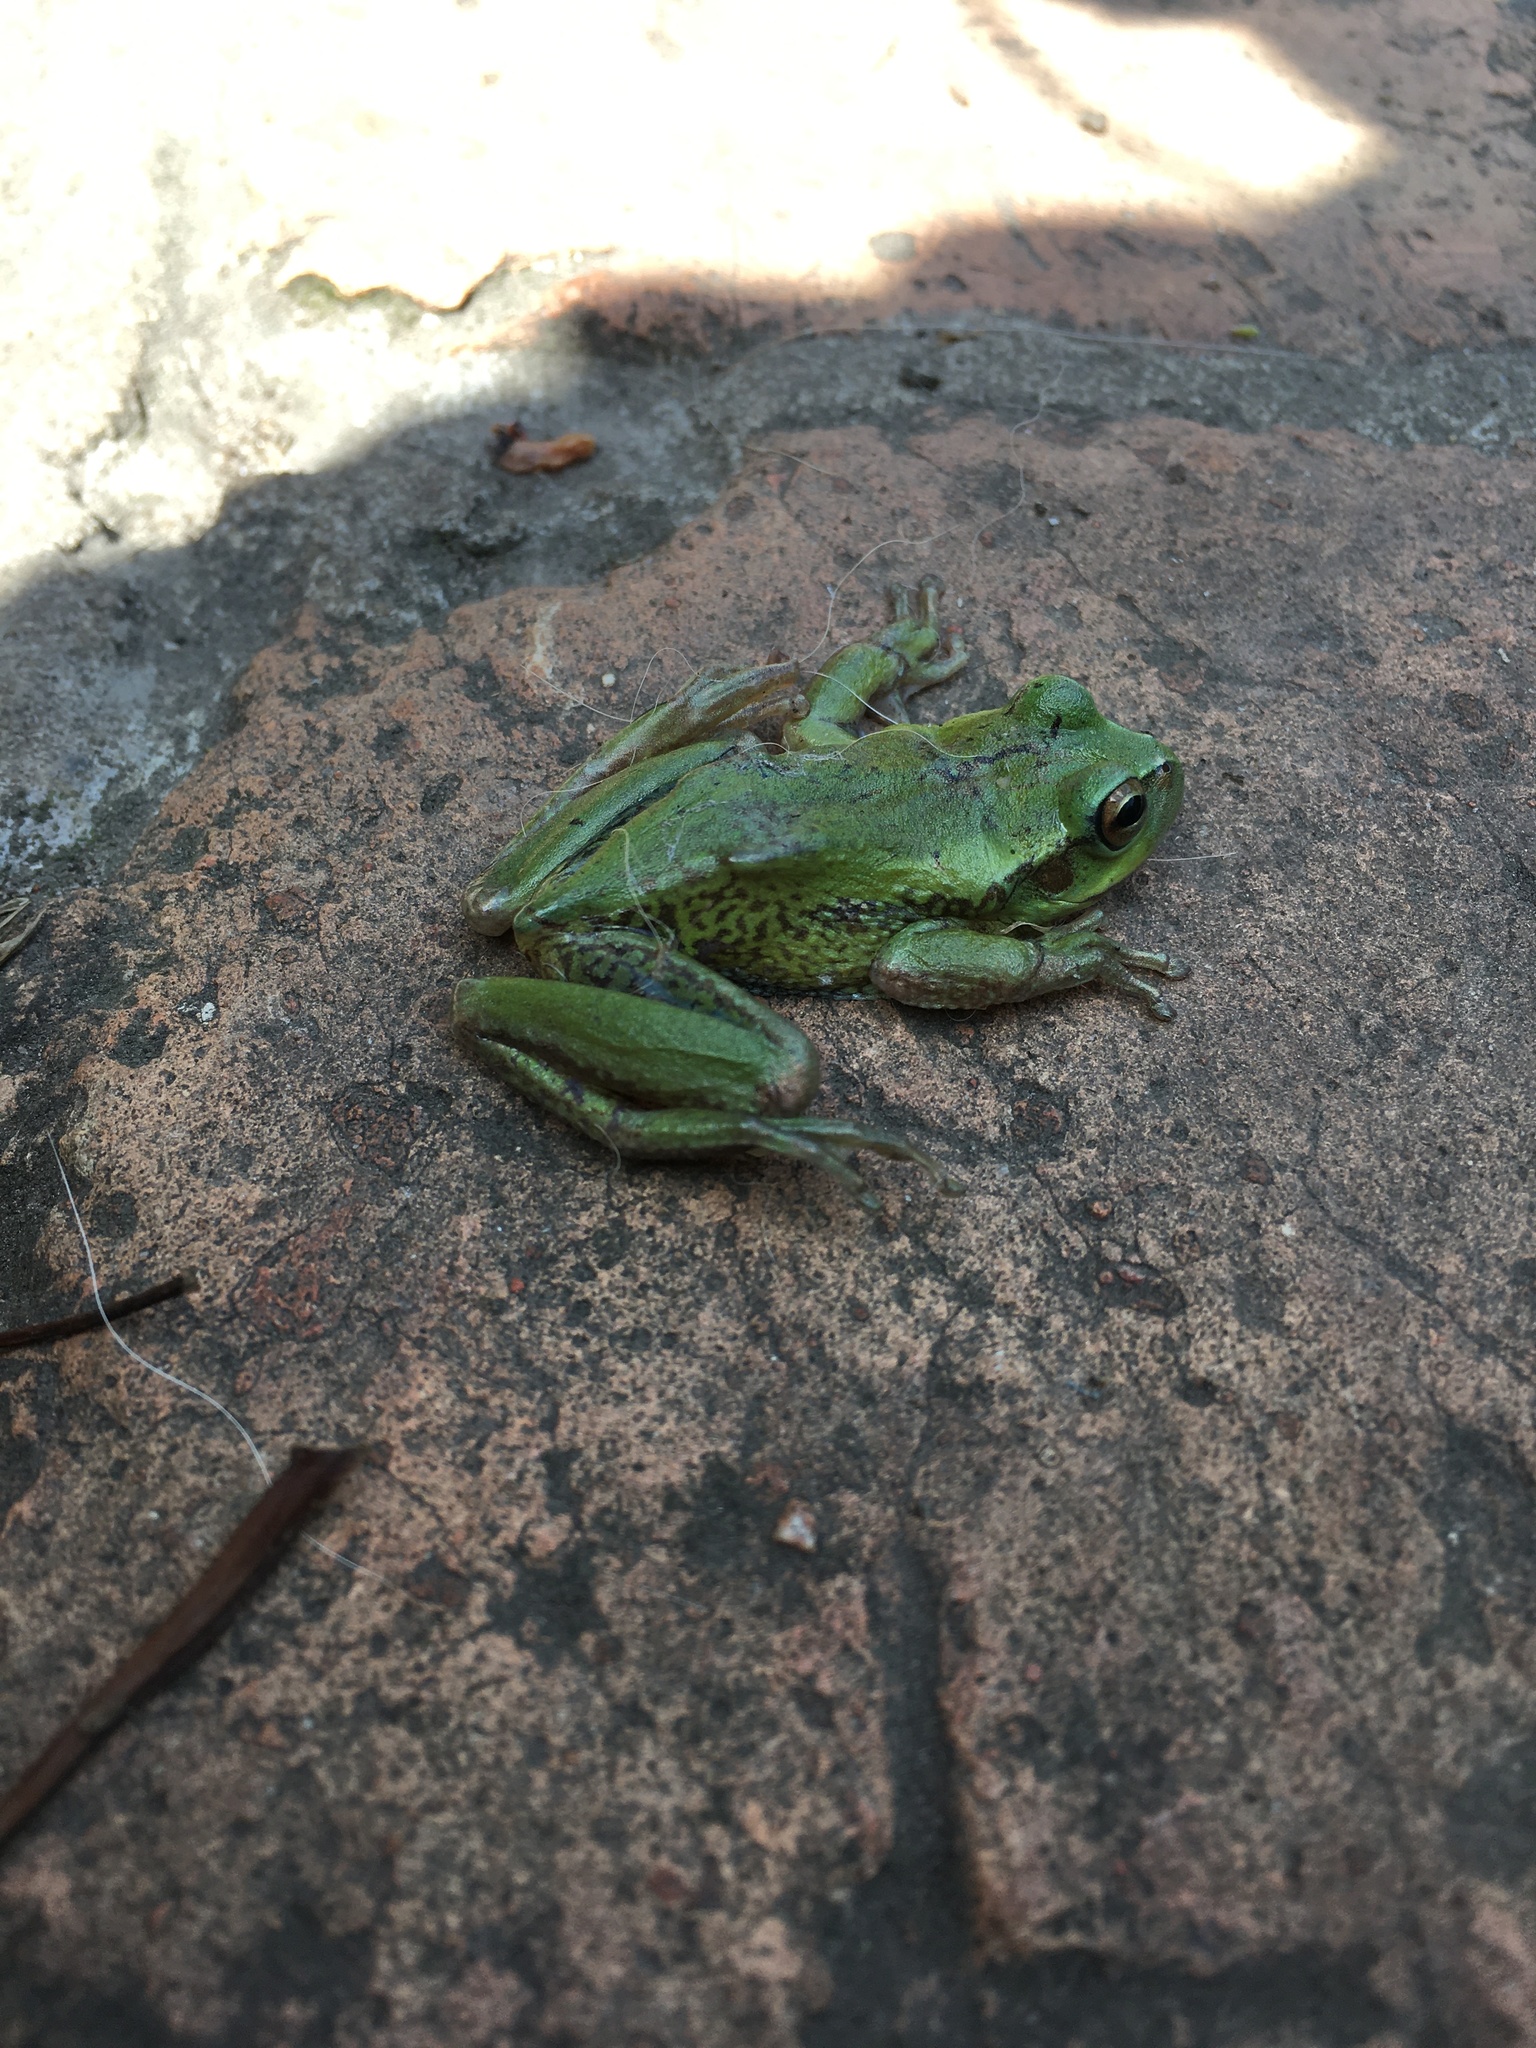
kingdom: Animalia
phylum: Chordata
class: Amphibia
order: Anura
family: Hylidae
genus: Dendropsophus
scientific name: Dendropsophus molitor
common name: Green dotted treefrog
